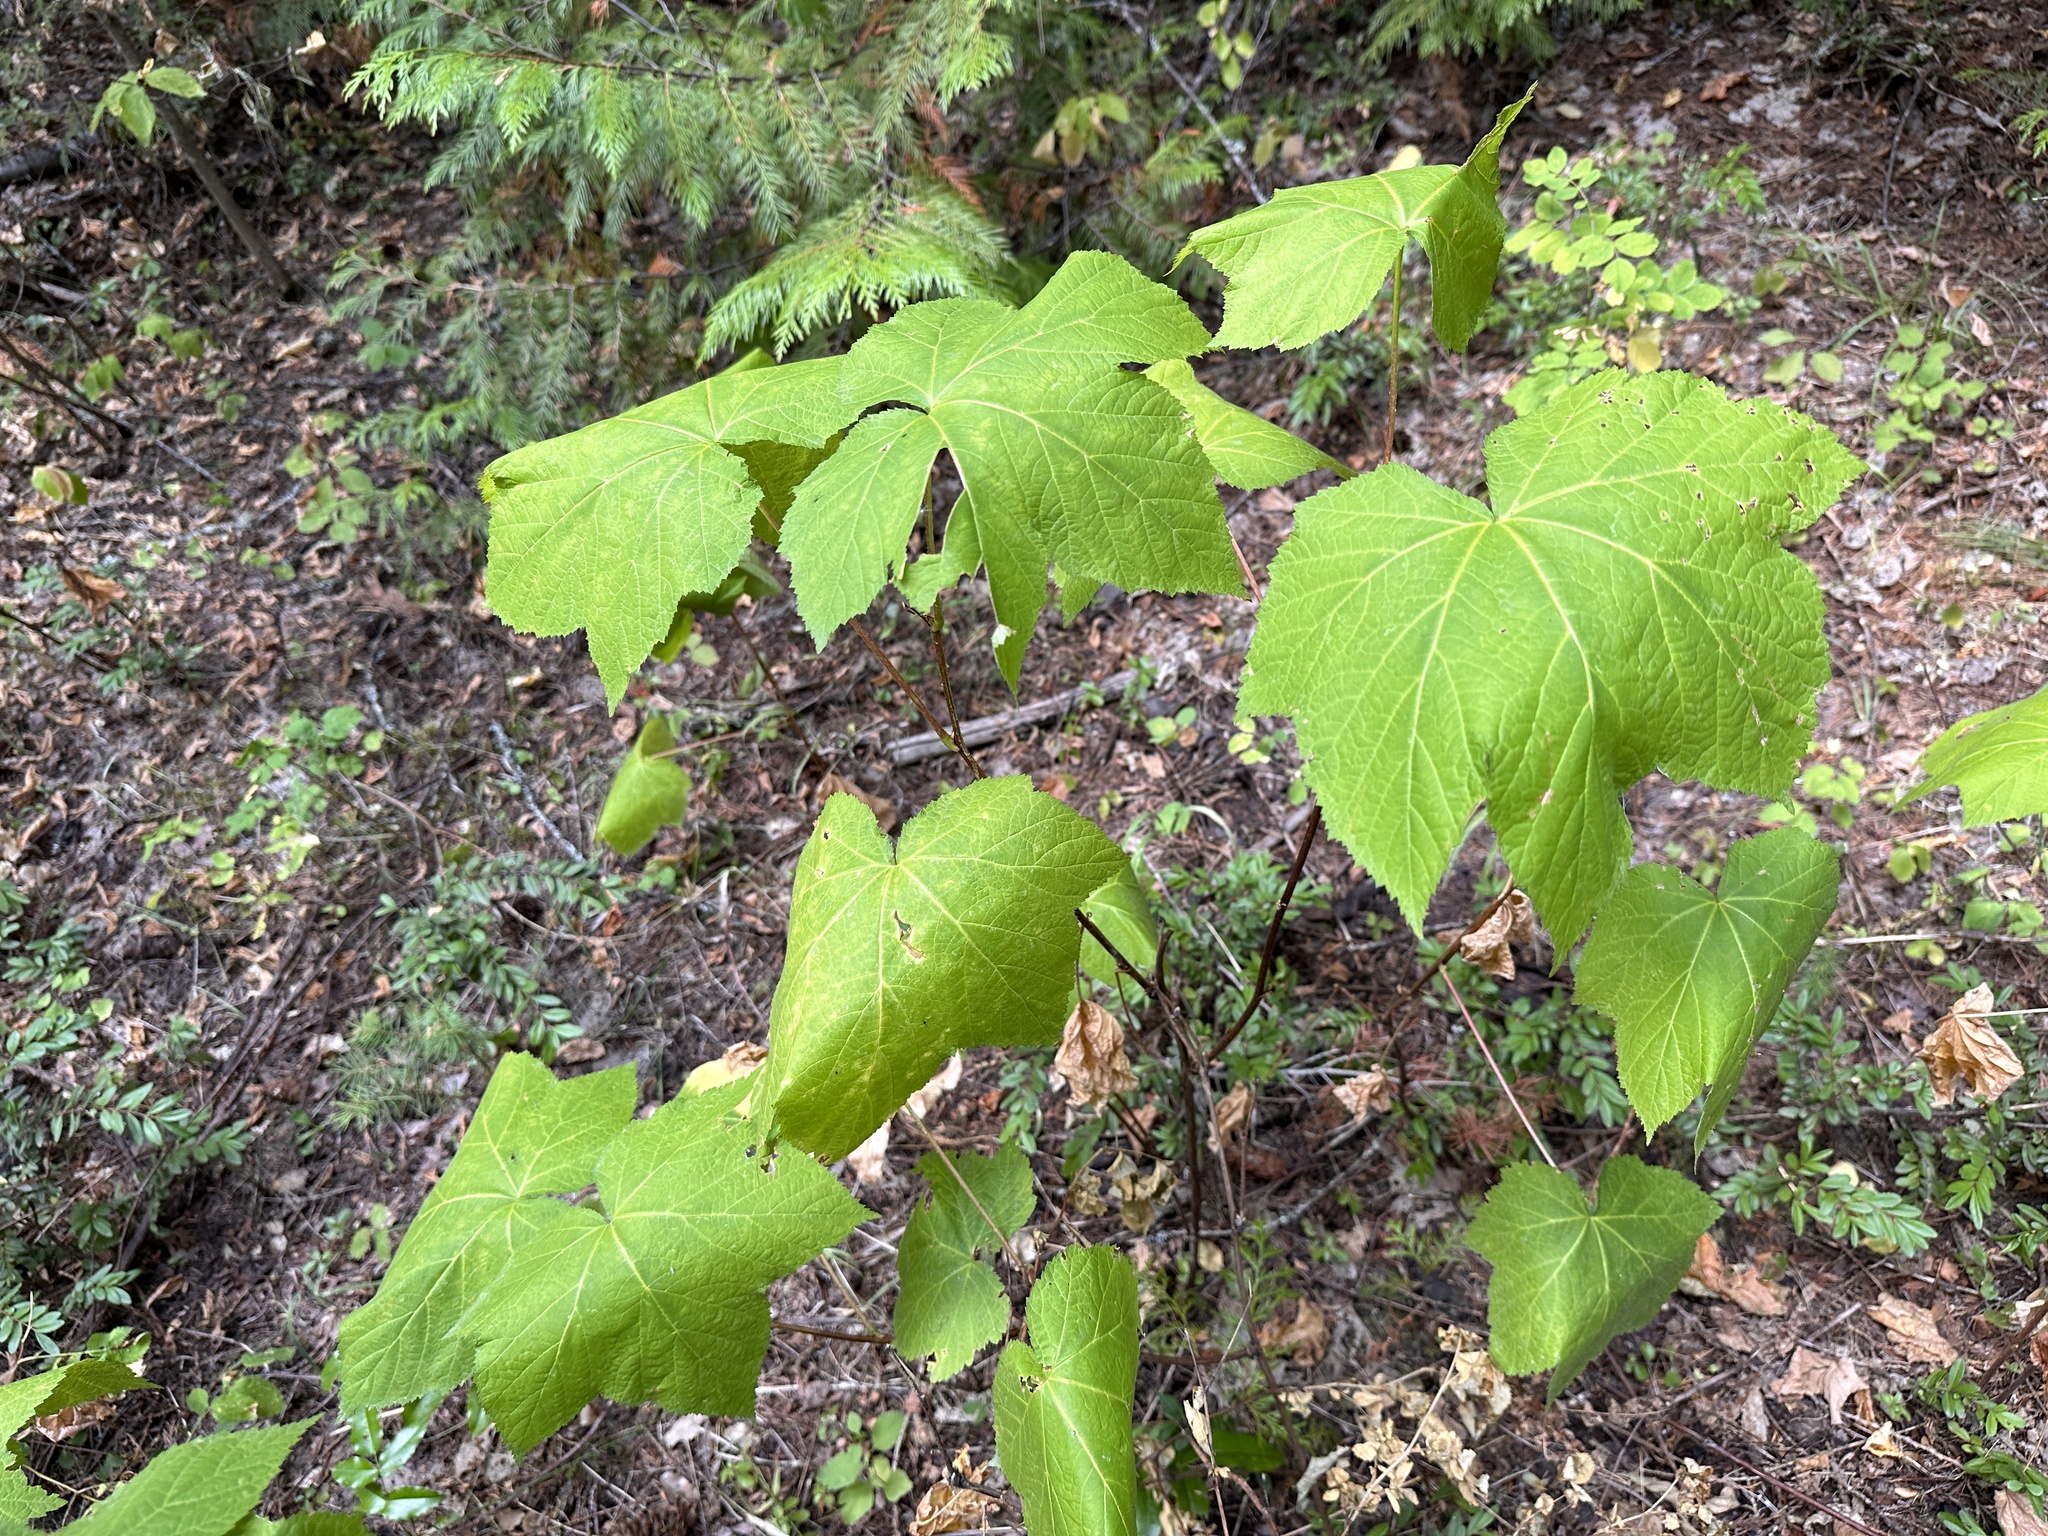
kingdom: Plantae
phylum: Tracheophyta
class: Magnoliopsida
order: Rosales
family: Rosaceae
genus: Rubus
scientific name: Rubus parviflorus
